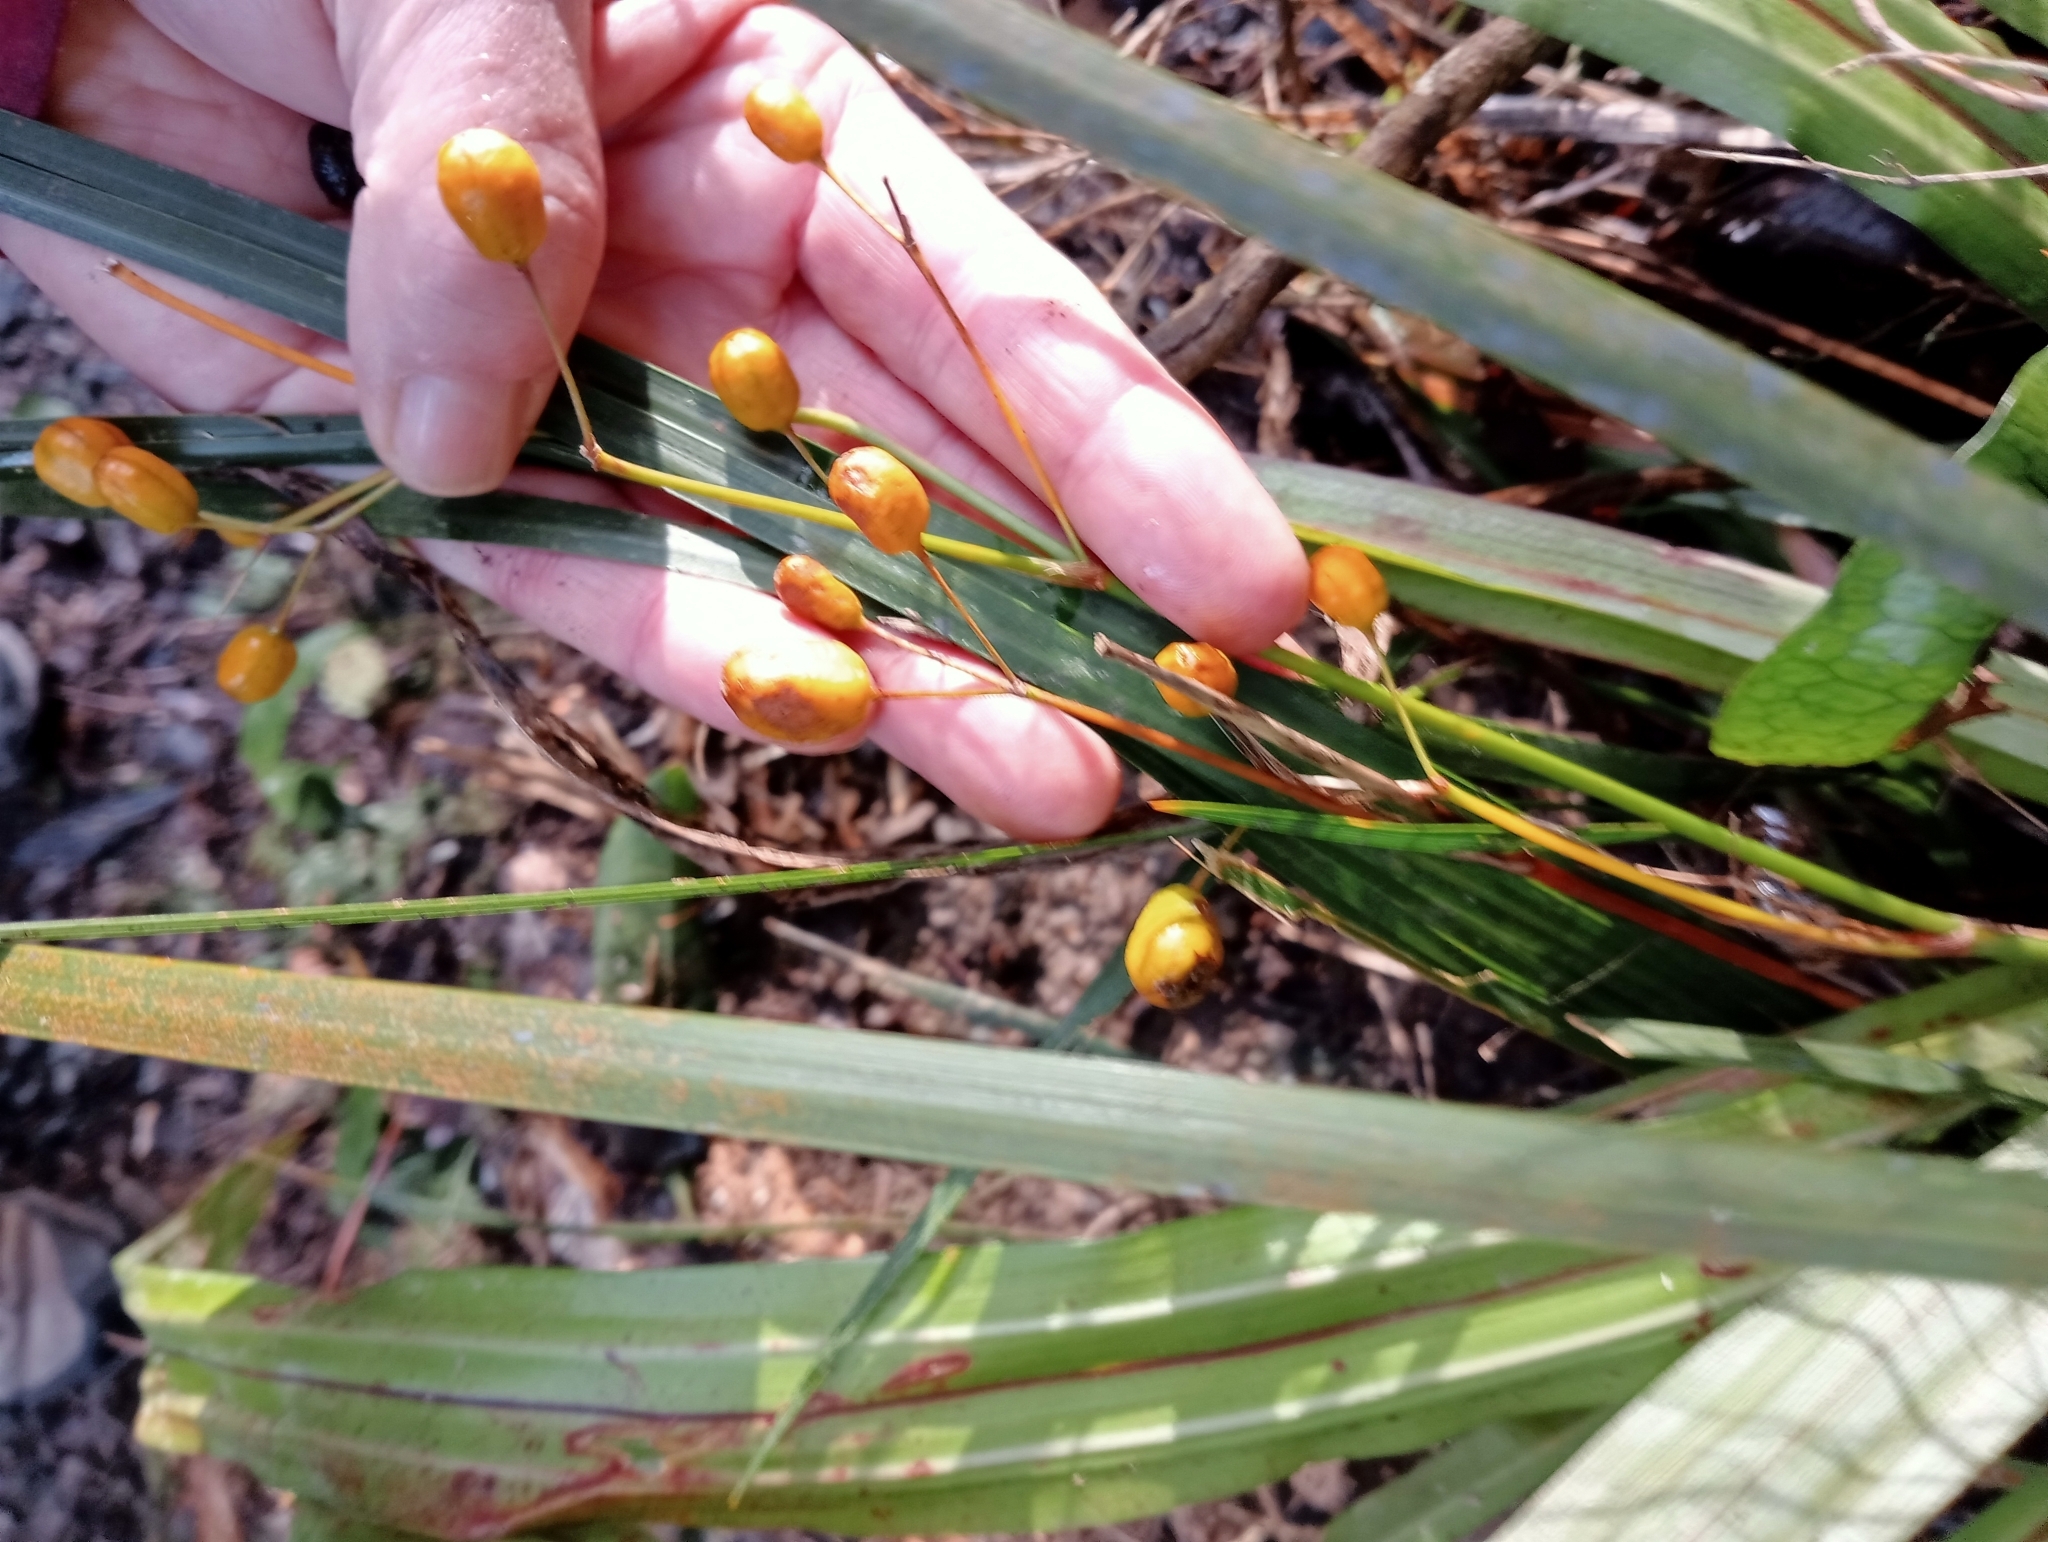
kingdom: Plantae
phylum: Tracheophyta
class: Liliopsida
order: Asparagales
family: Iridaceae
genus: Libertia
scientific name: Libertia ixioides
